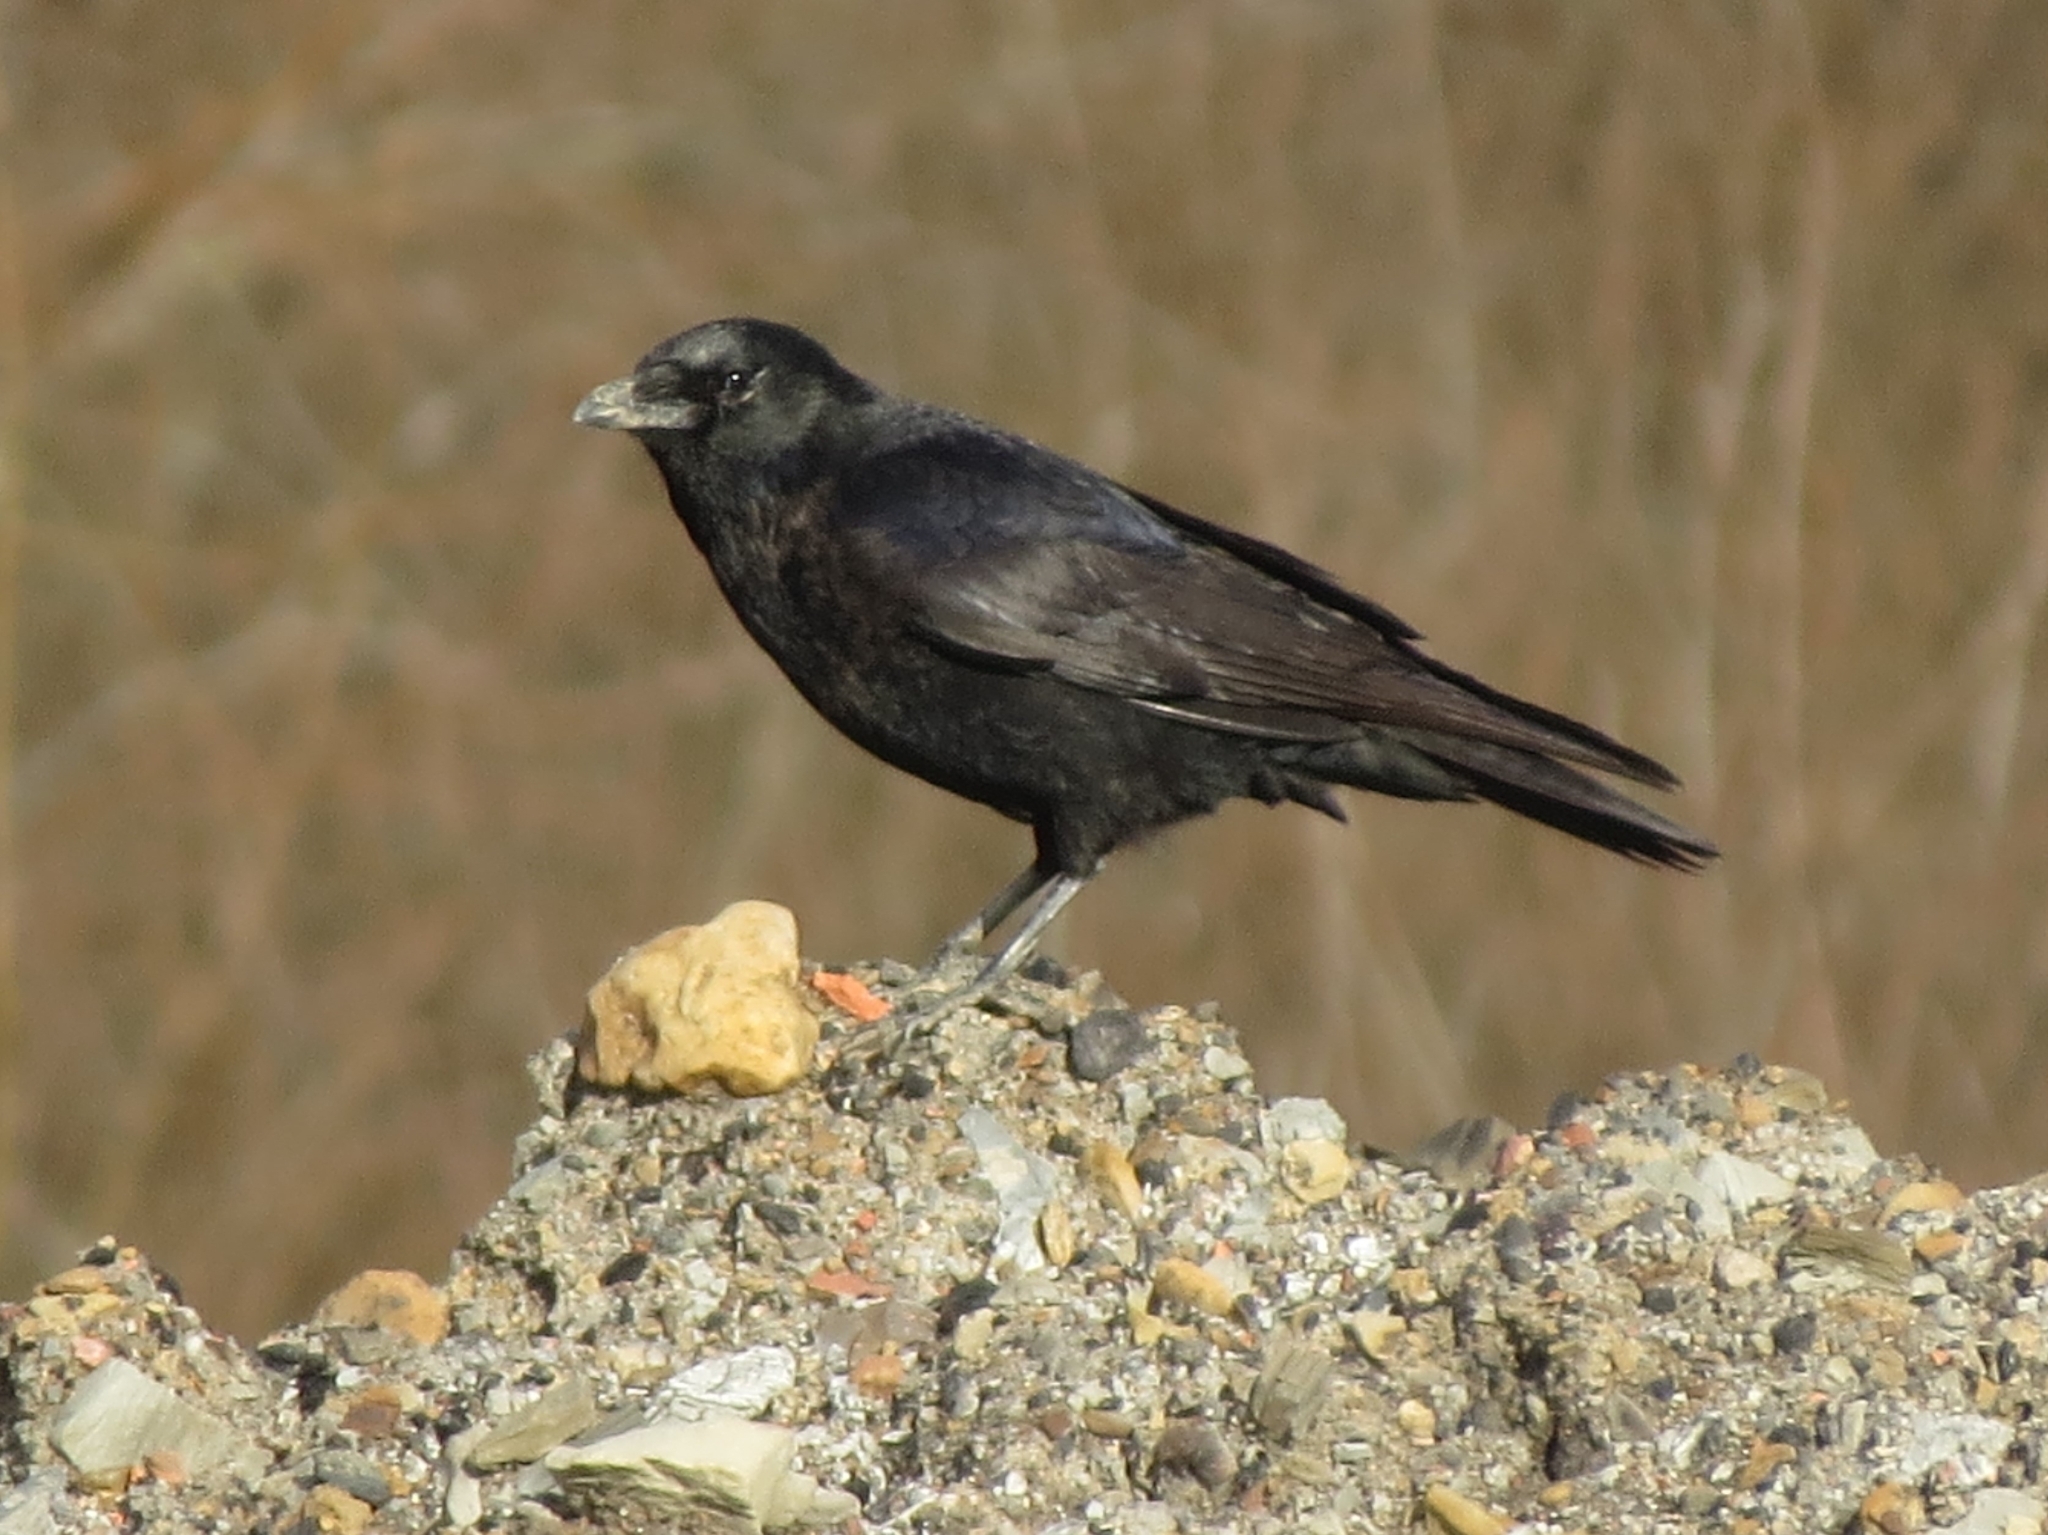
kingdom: Animalia
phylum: Chordata
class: Aves
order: Passeriformes
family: Corvidae
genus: Corvus
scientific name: Corvus corone
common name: Carrion crow
